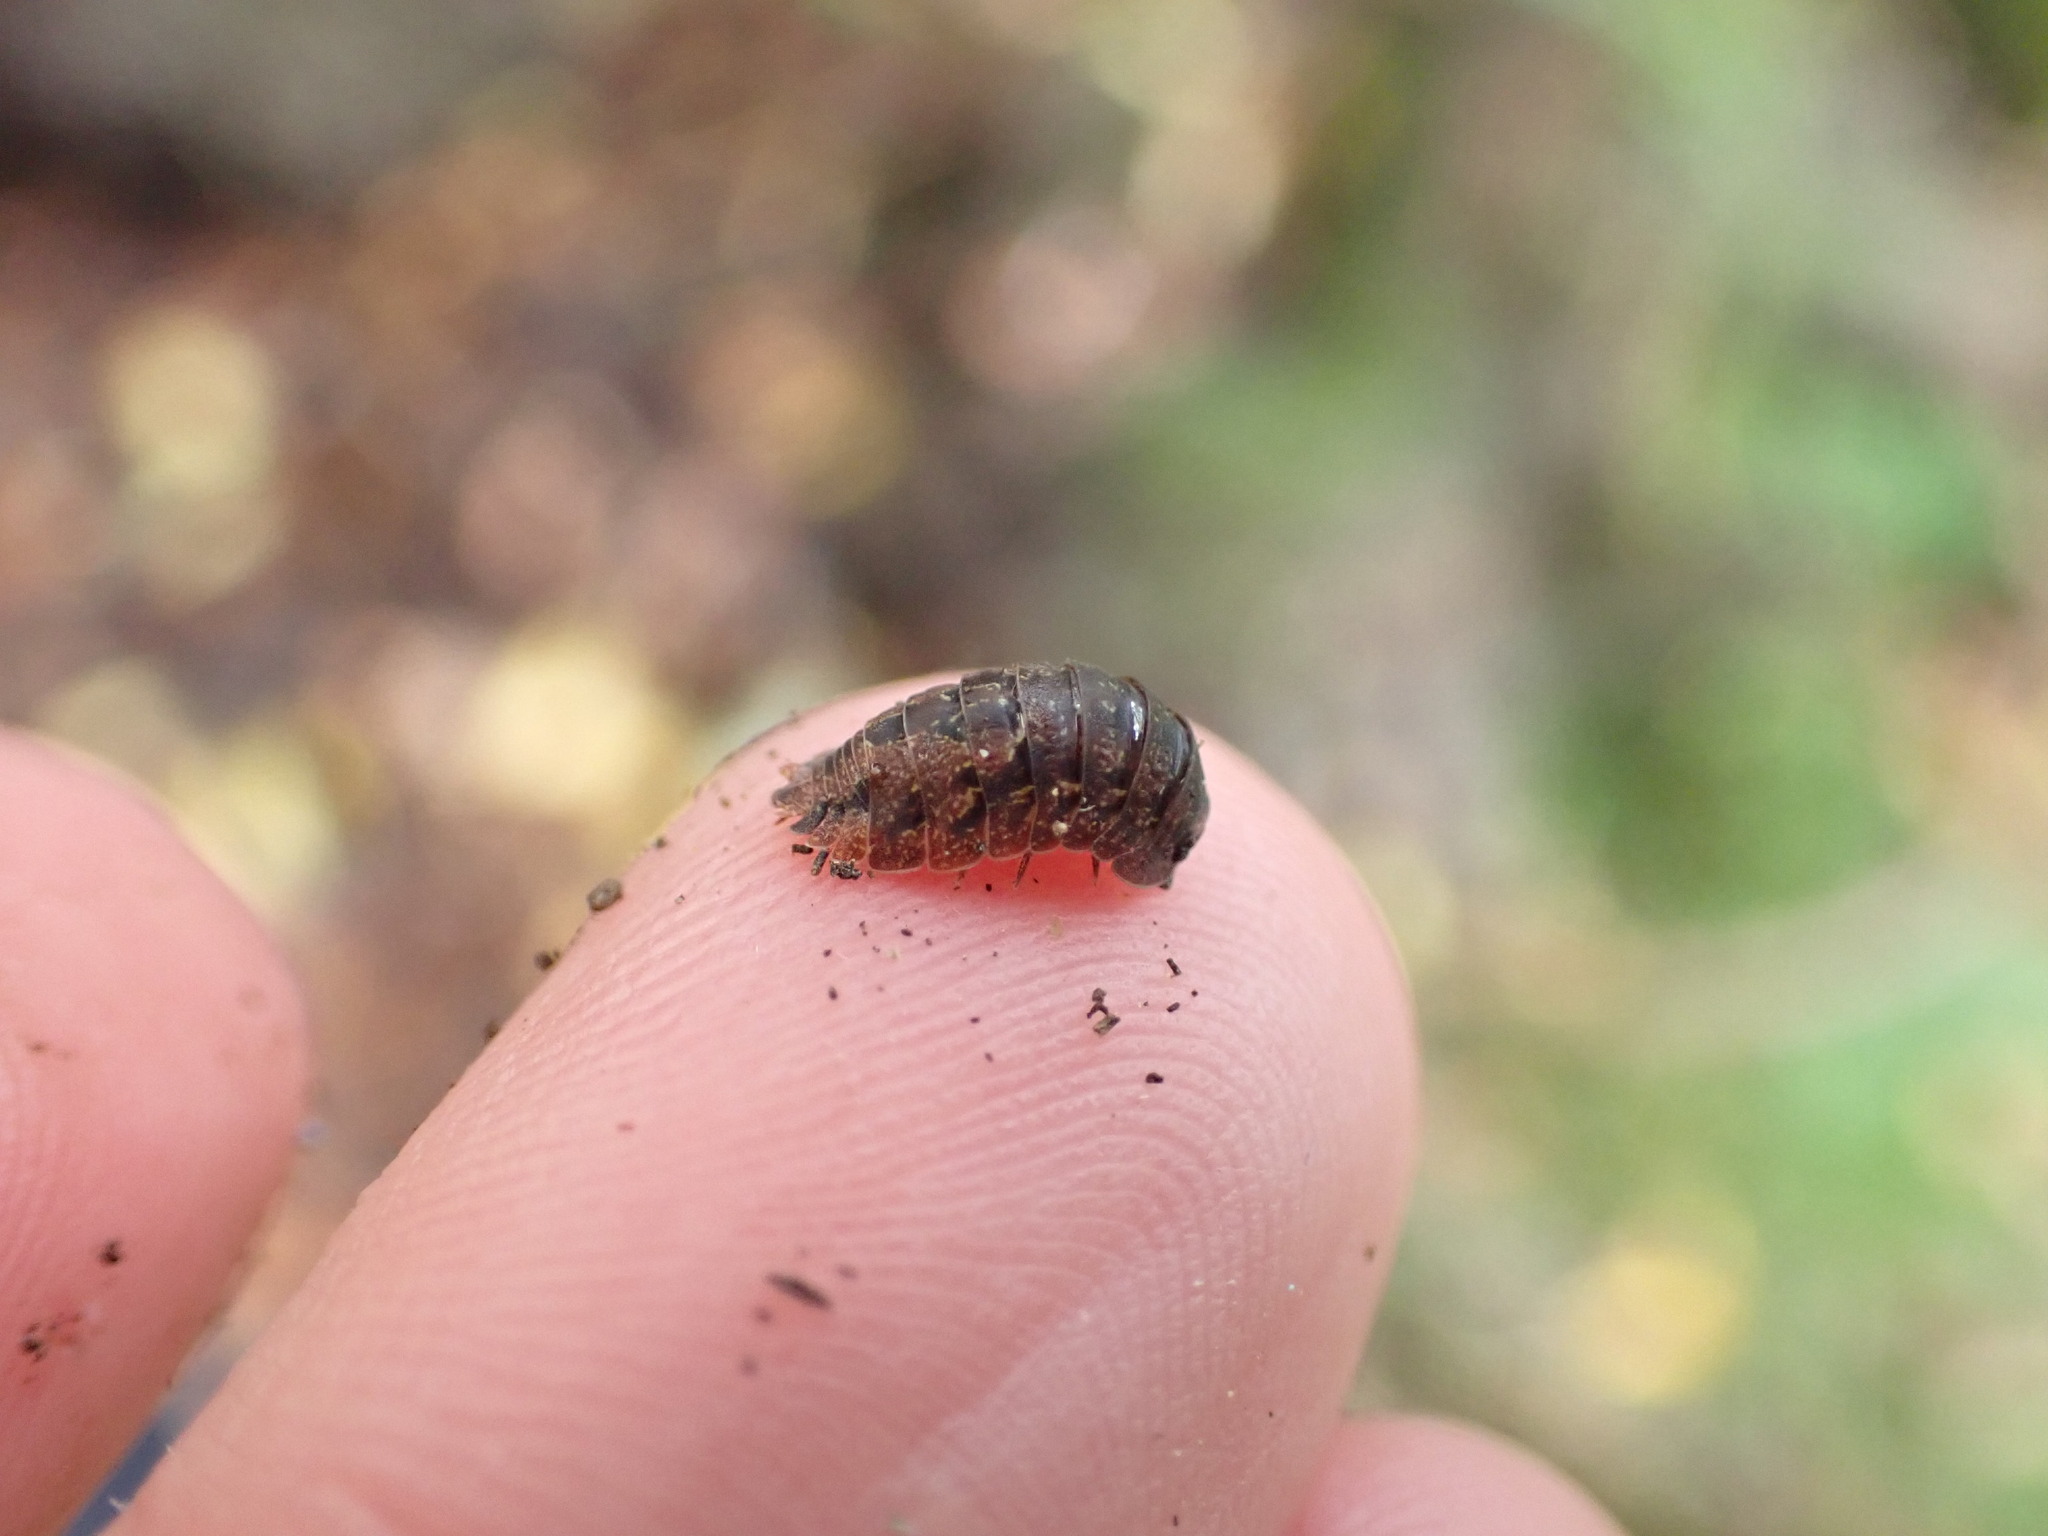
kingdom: Animalia
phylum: Arthropoda
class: Malacostraca
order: Isopoda
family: Armadillidae
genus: Cubaris
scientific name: Cubaris tarangensis
